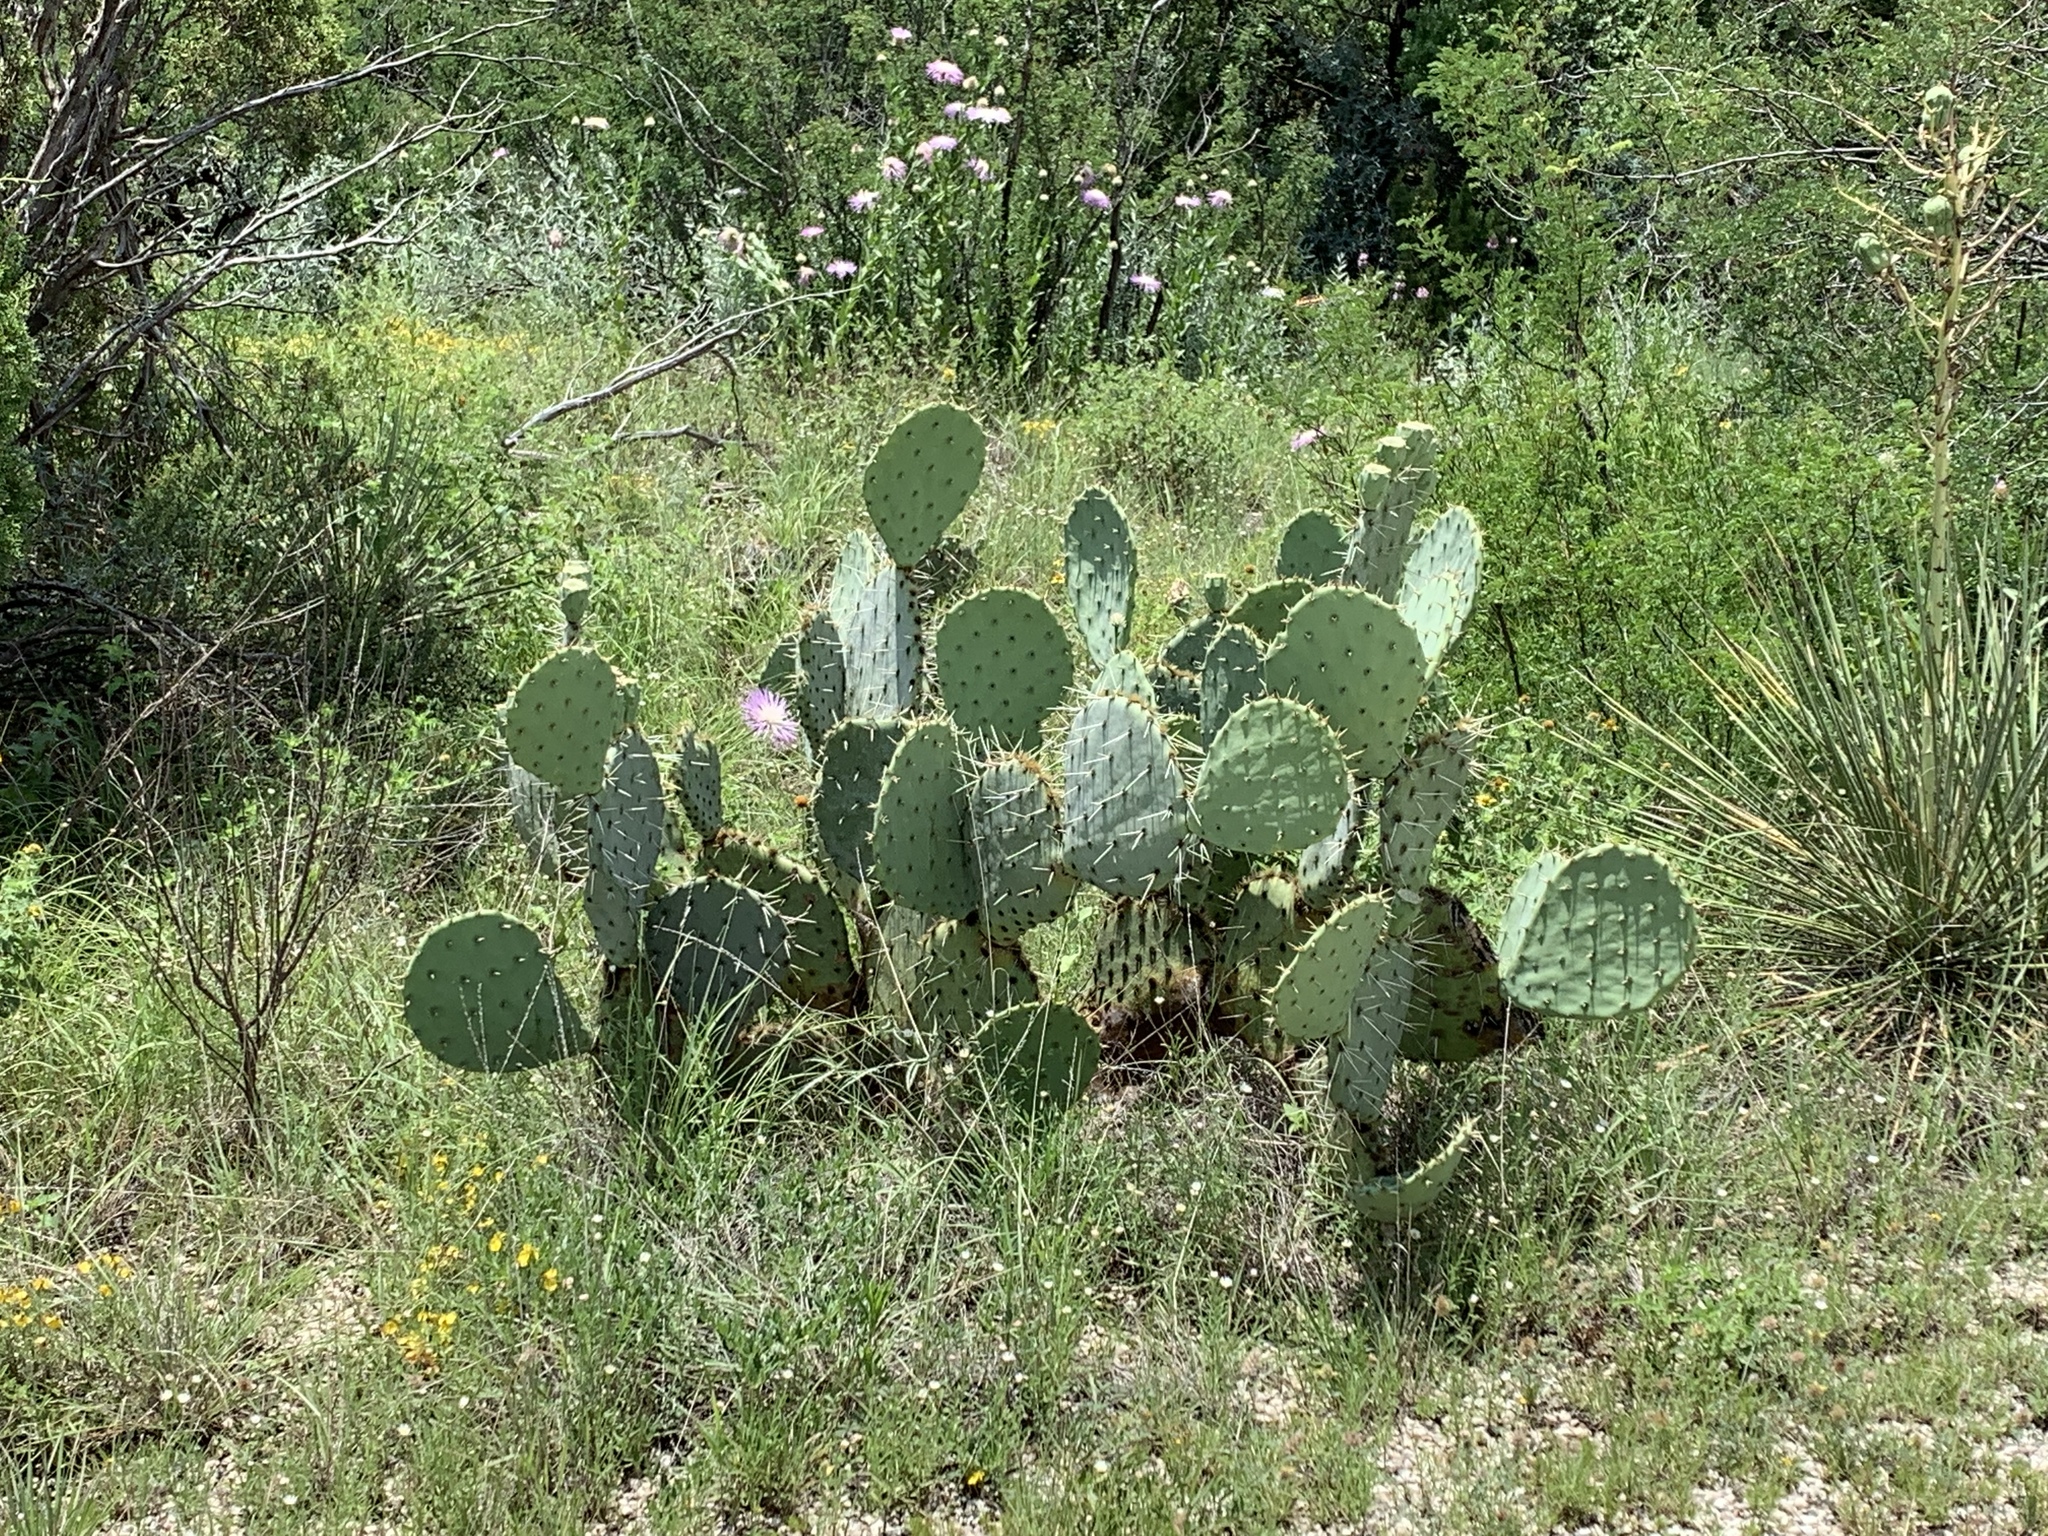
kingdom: Plantae
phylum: Tracheophyta
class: Magnoliopsida
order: Caryophyllales
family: Cactaceae
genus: Opuntia
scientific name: Opuntia engelmannii
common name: Cactus-apple
